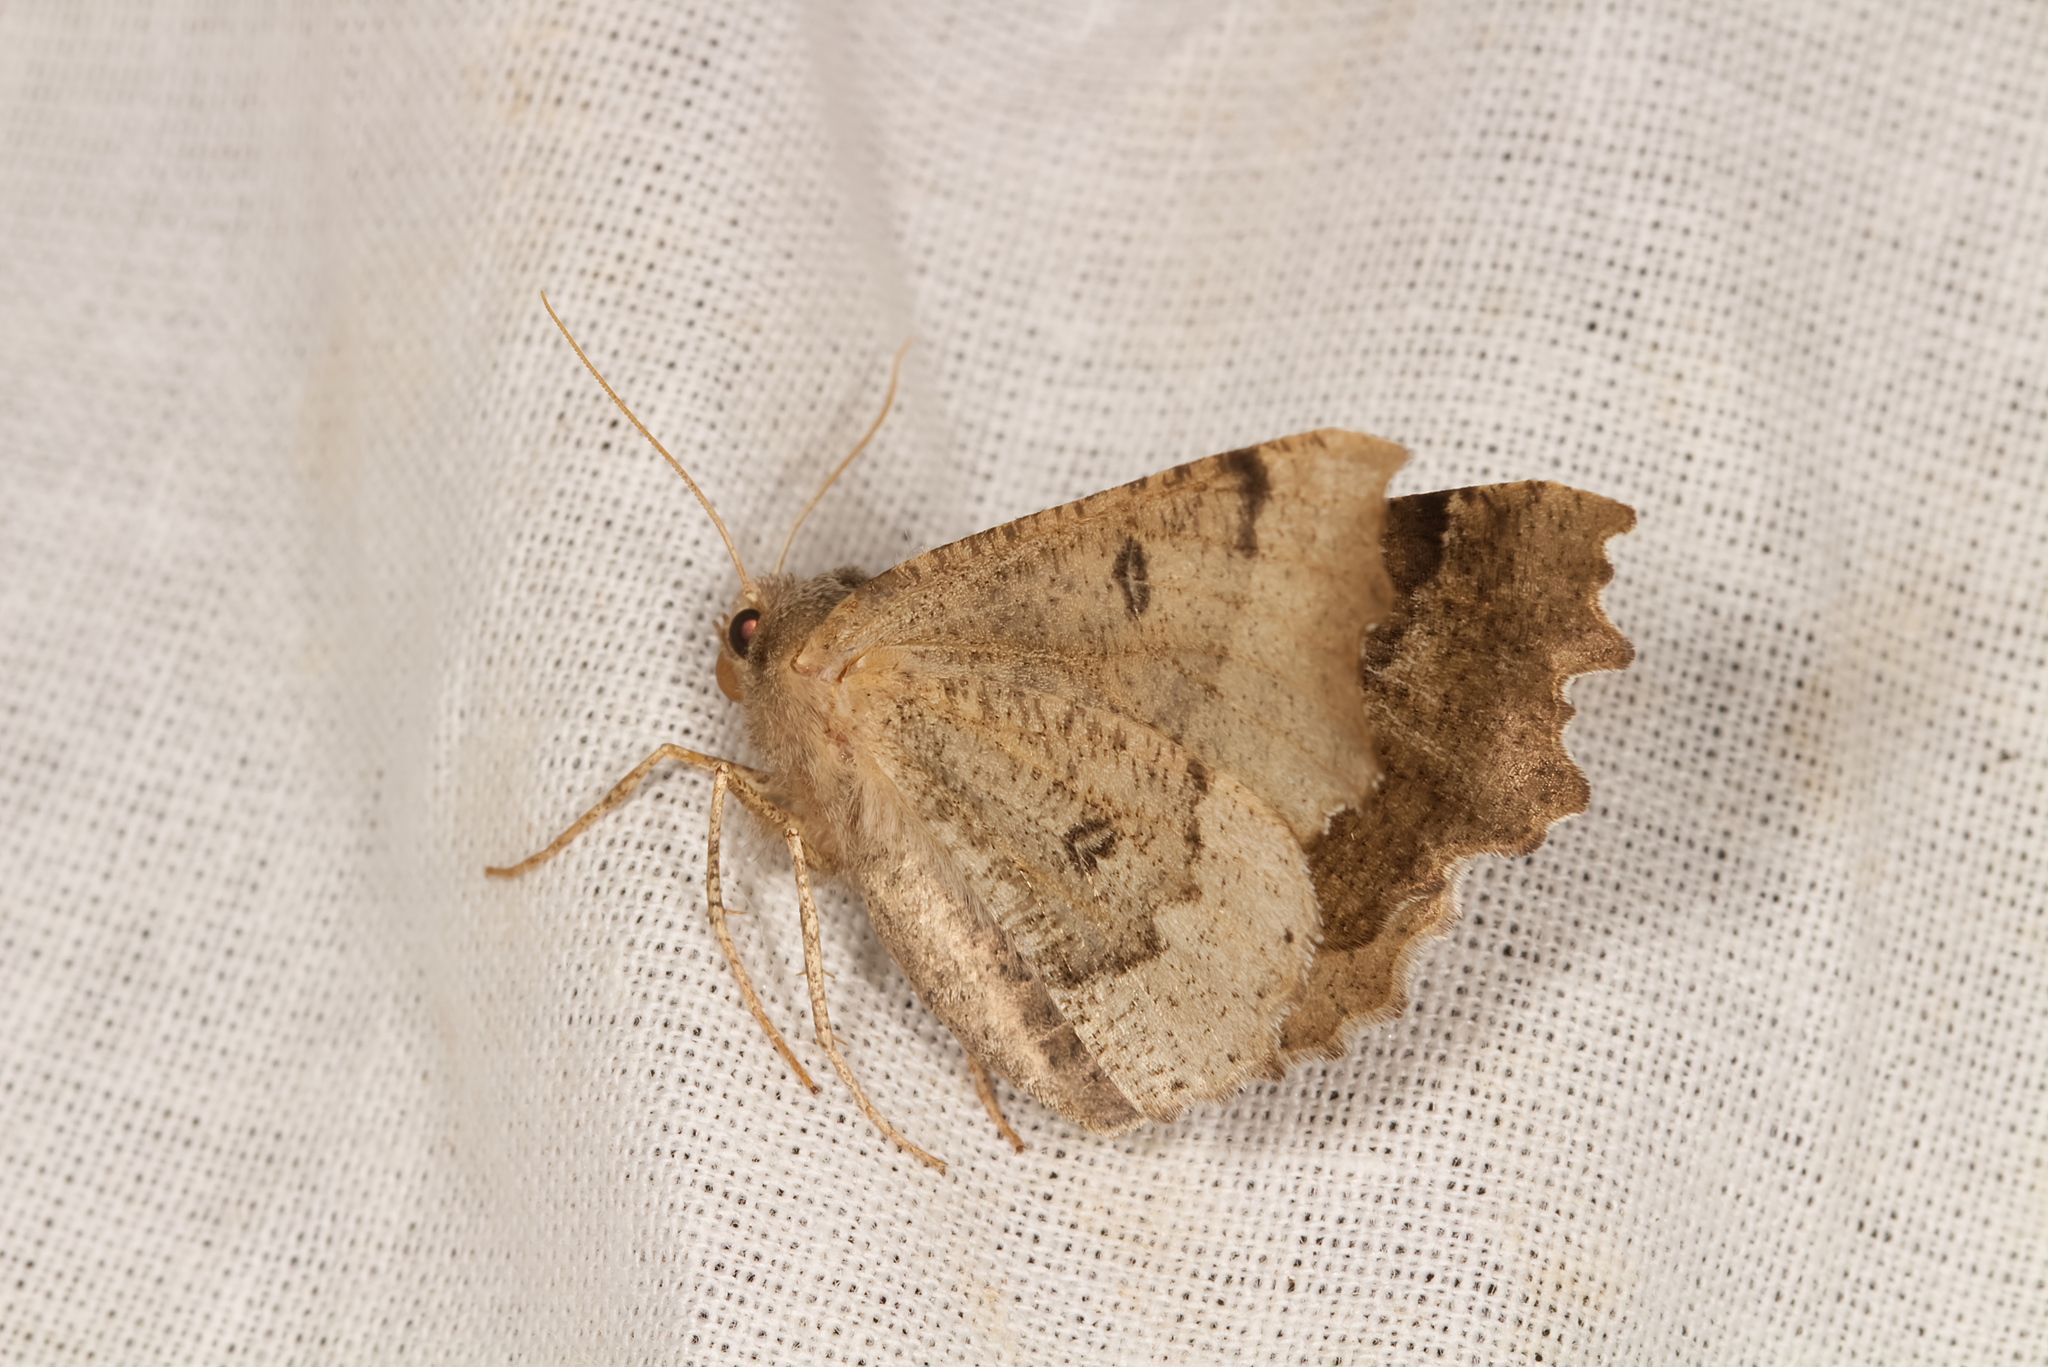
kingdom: Animalia
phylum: Arthropoda
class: Insecta
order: Lepidoptera
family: Geometridae
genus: Odontopera
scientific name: Odontopera bidentata
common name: Scalloped hazel
